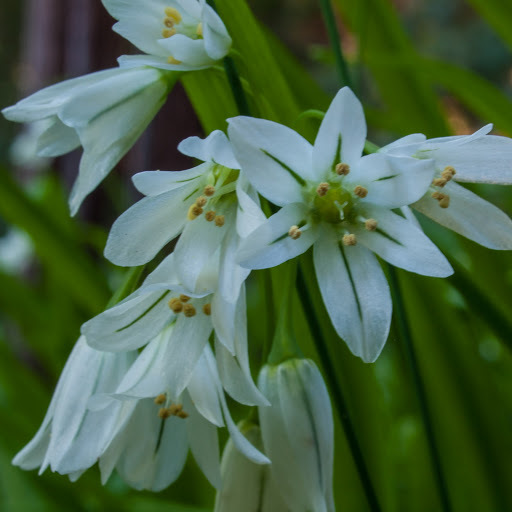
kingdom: Plantae
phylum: Tracheophyta
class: Liliopsida
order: Asparagales
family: Amaryllidaceae
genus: Allium
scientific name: Allium triquetrum
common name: Three-cornered garlic
